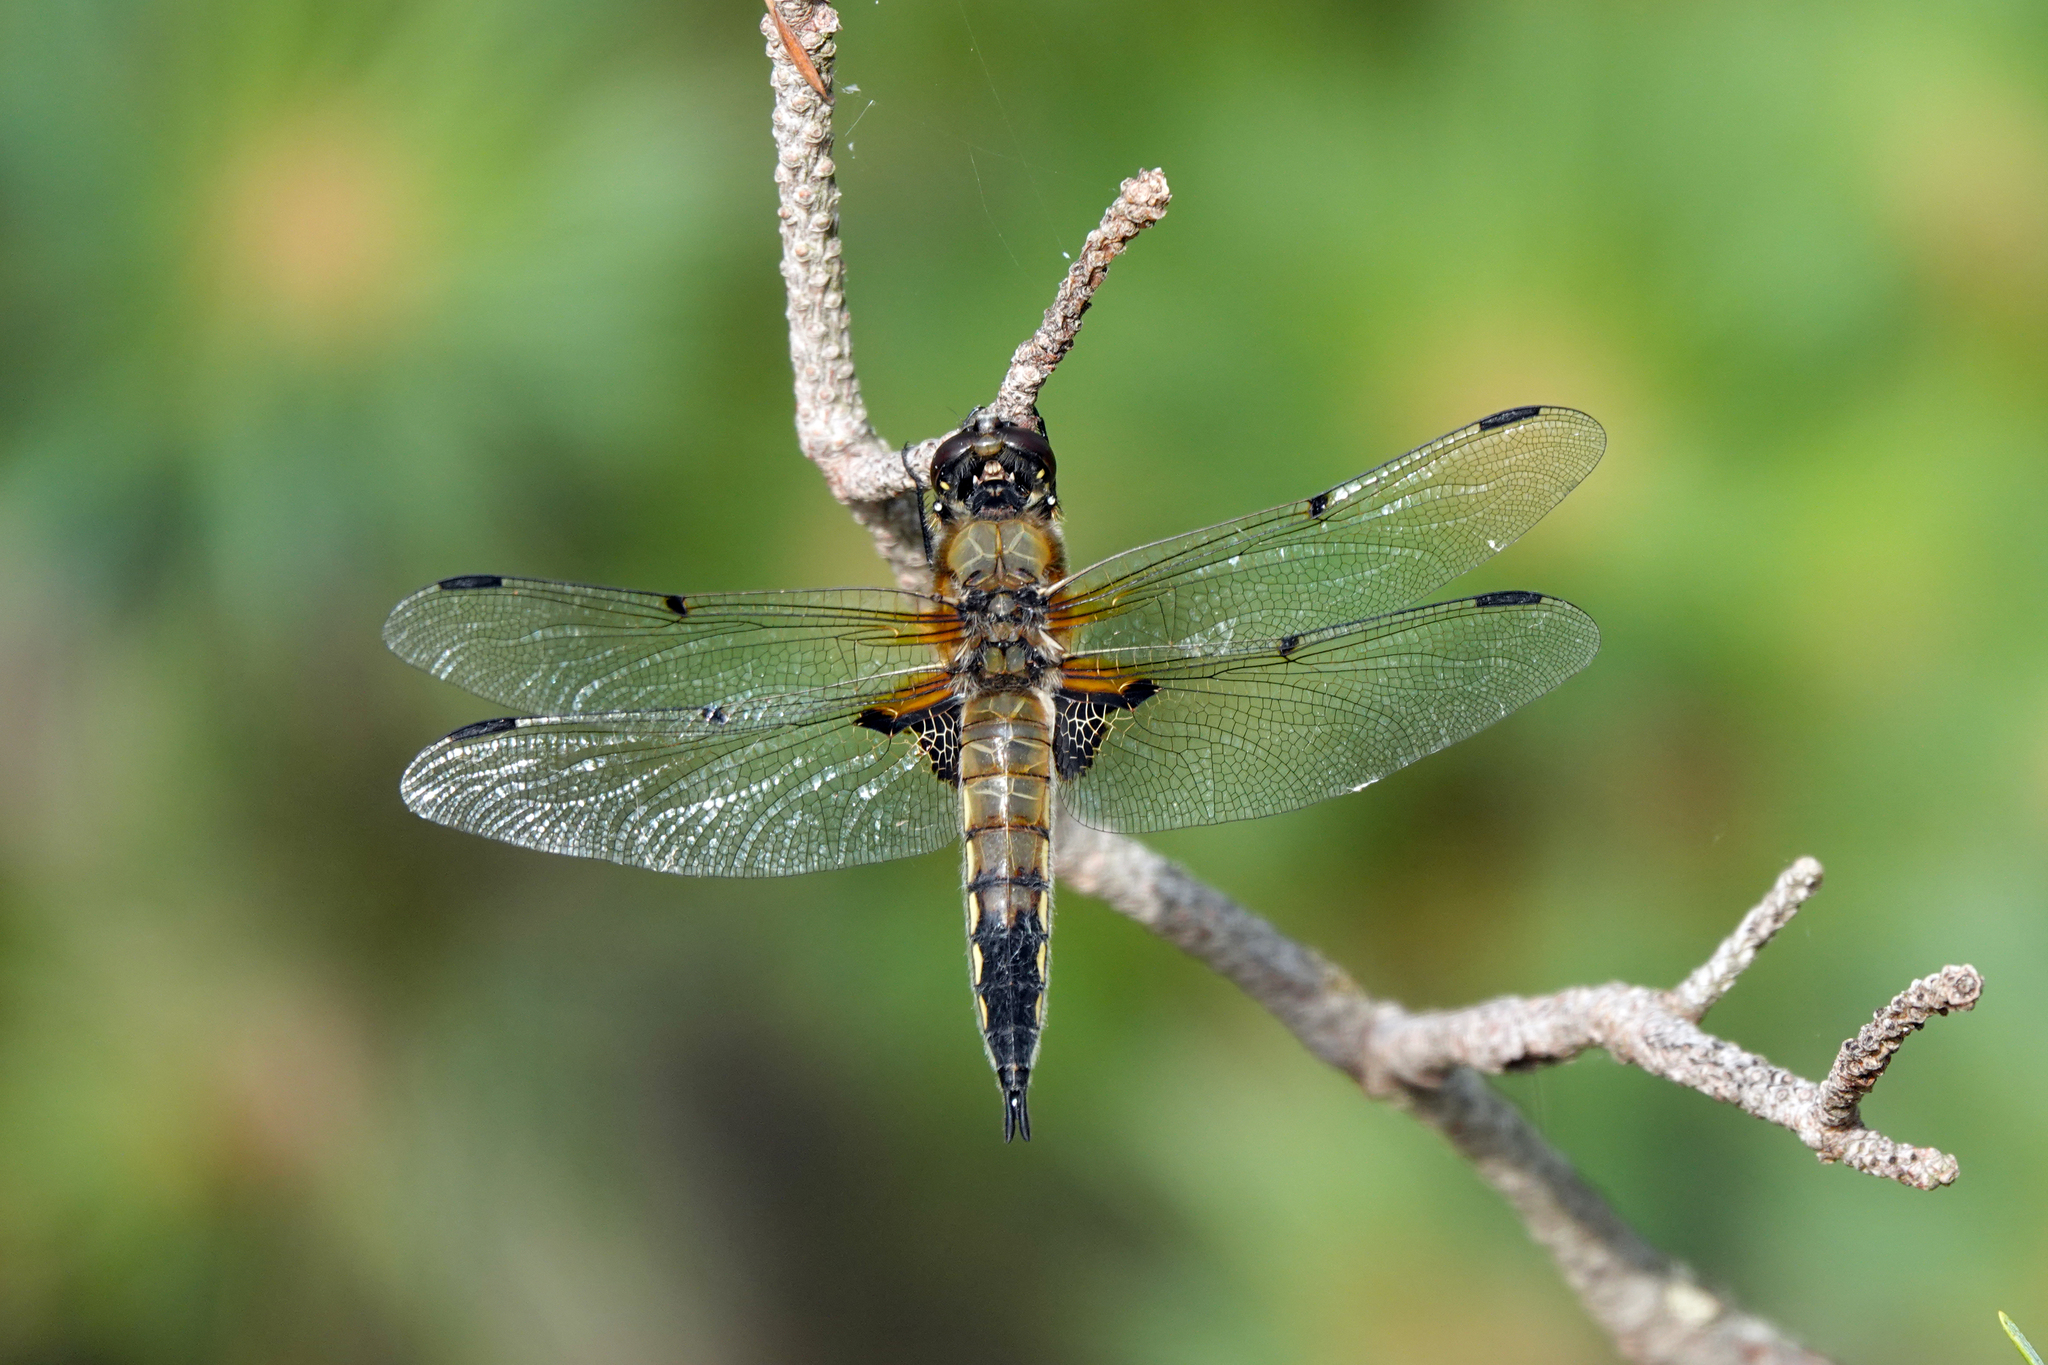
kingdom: Animalia
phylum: Arthropoda
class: Insecta
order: Odonata
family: Libellulidae
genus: Libellula
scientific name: Libellula quadrimaculata
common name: Four-spotted chaser
